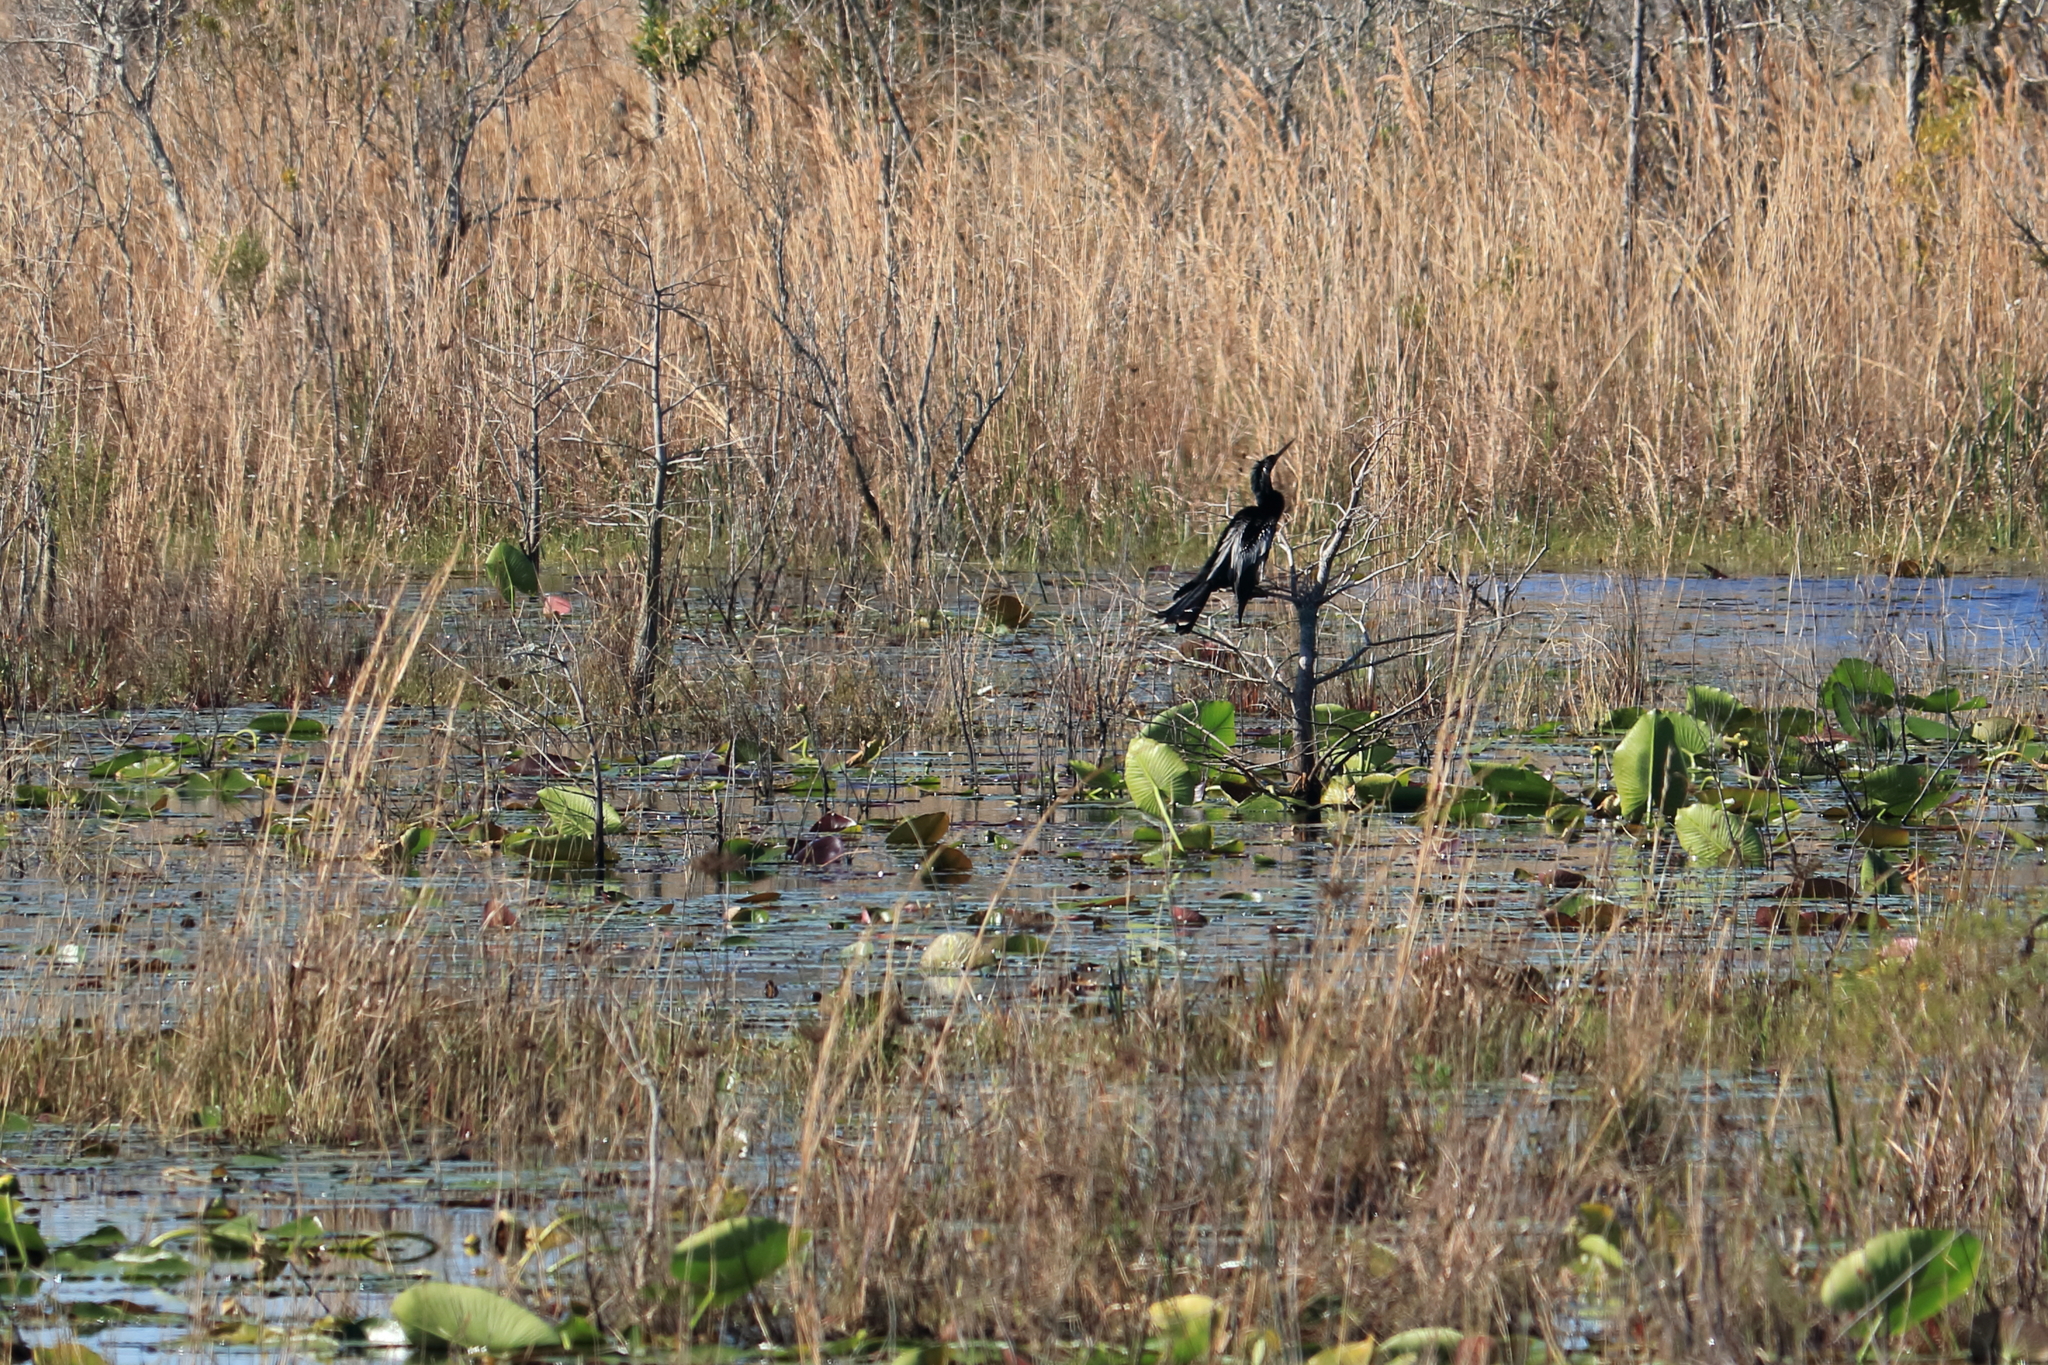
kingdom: Animalia
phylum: Chordata
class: Aves
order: Suliformes
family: Anhingidae
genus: Anhinga
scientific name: Anhinga anhinga
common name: Anhinga
